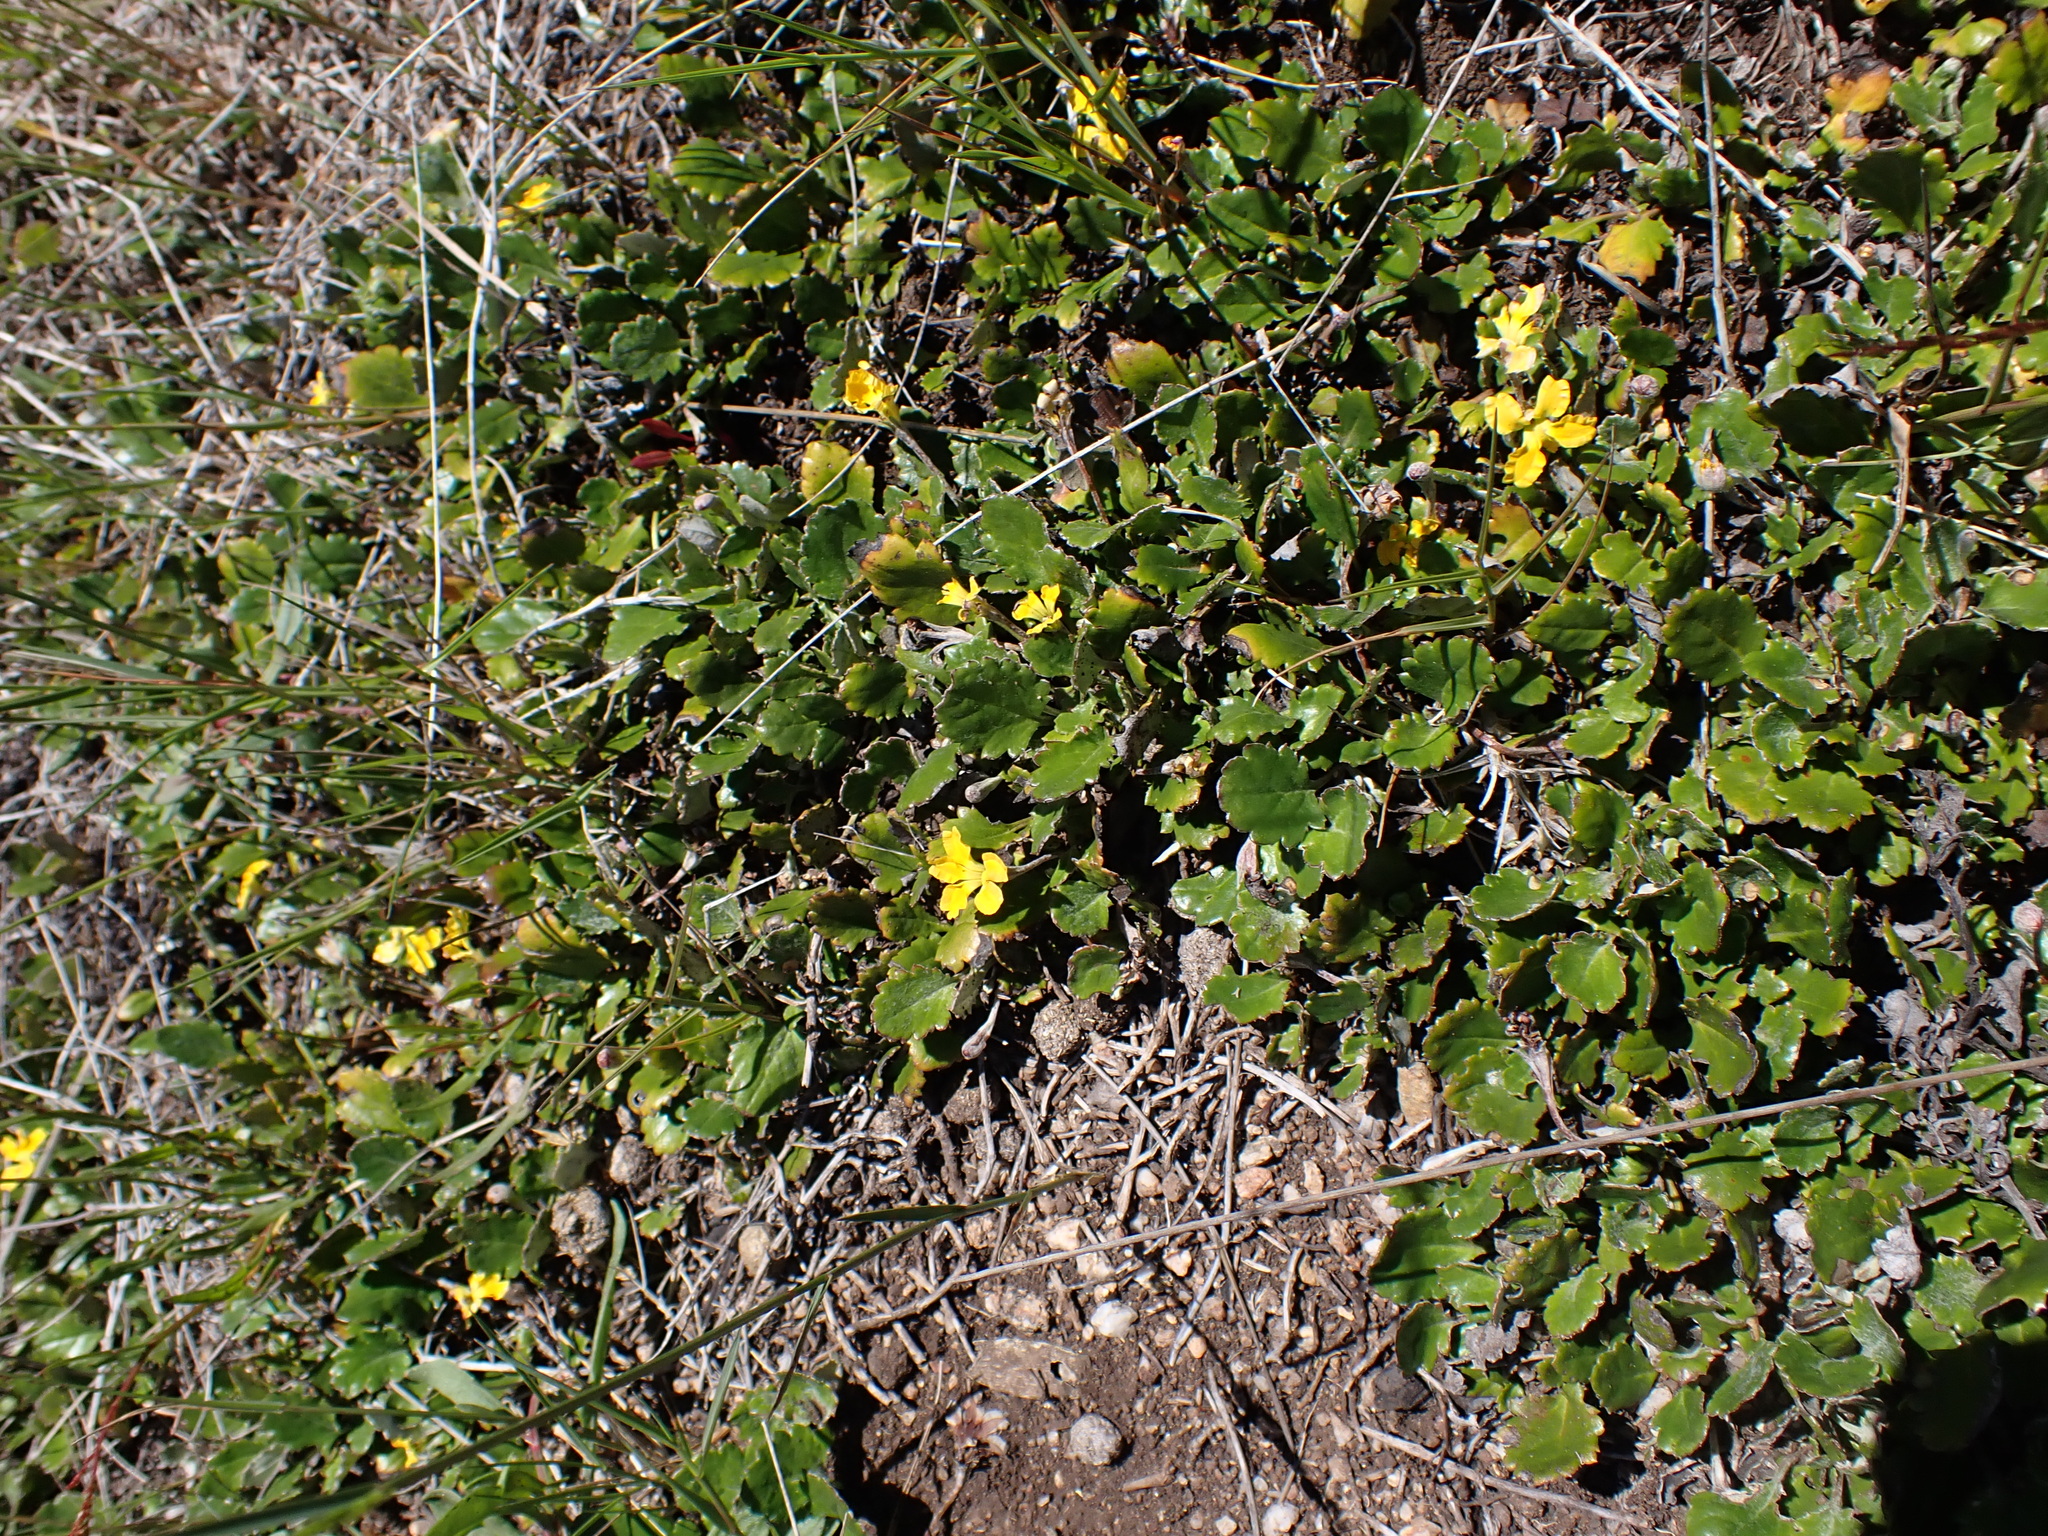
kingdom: Plantae
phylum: Tracheophyta
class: Magnoliopsida
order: Asterales
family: Goodeniaceae
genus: Goodenia
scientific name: Goodenia hederacea
